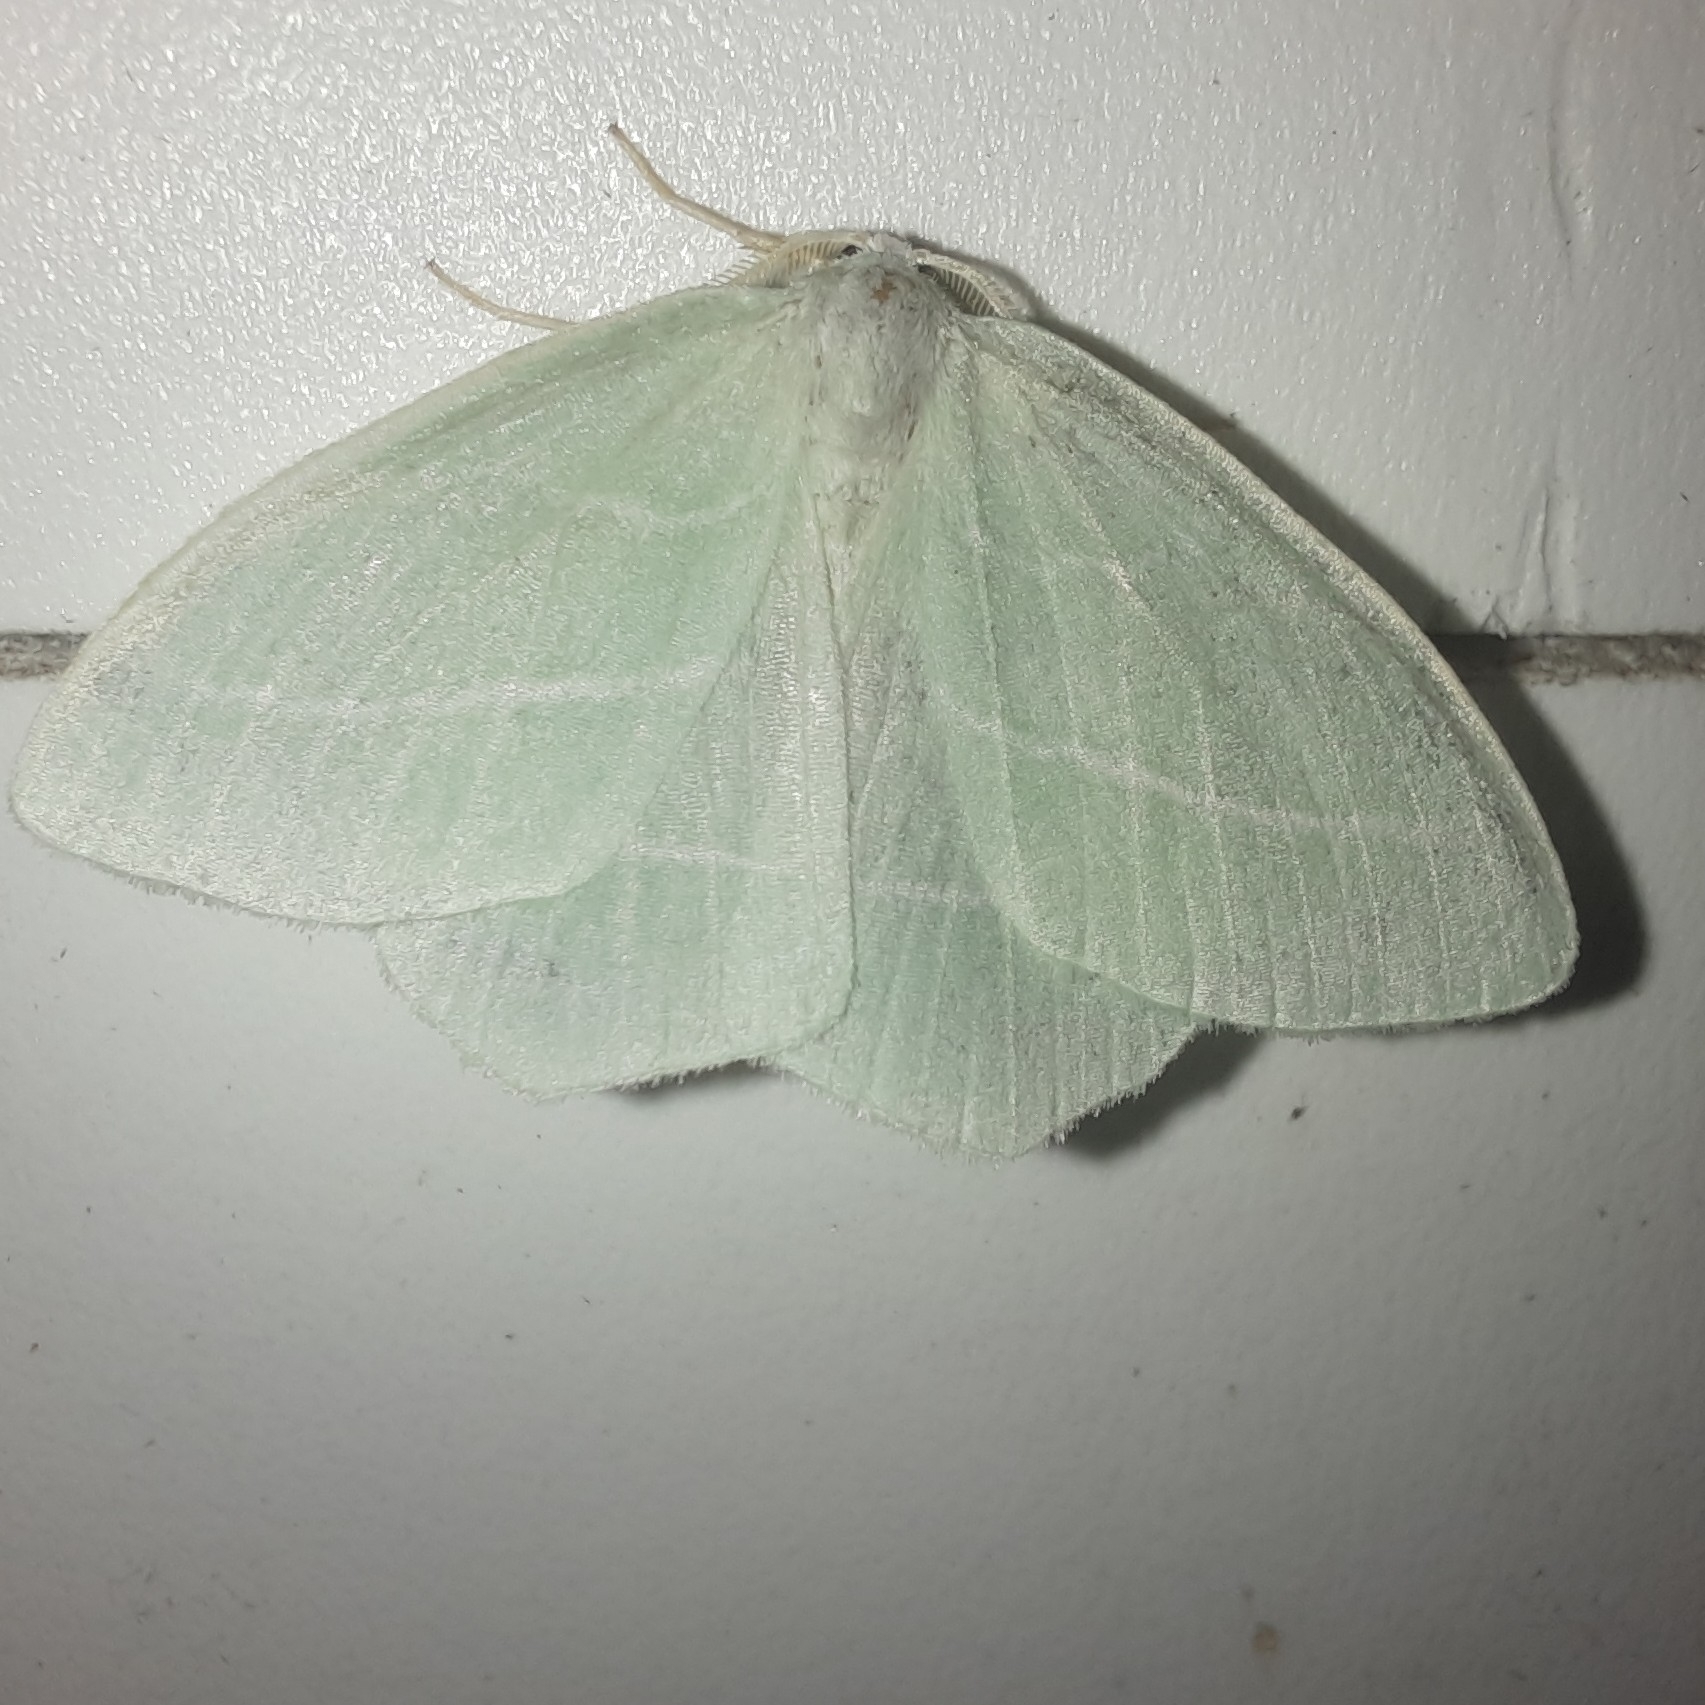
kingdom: Animalia
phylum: Arthropoda
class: Insecta
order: Lepidoptera
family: Geometridae
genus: Hemistola
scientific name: Hemistola chrysoprasaria
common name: Small emerald
